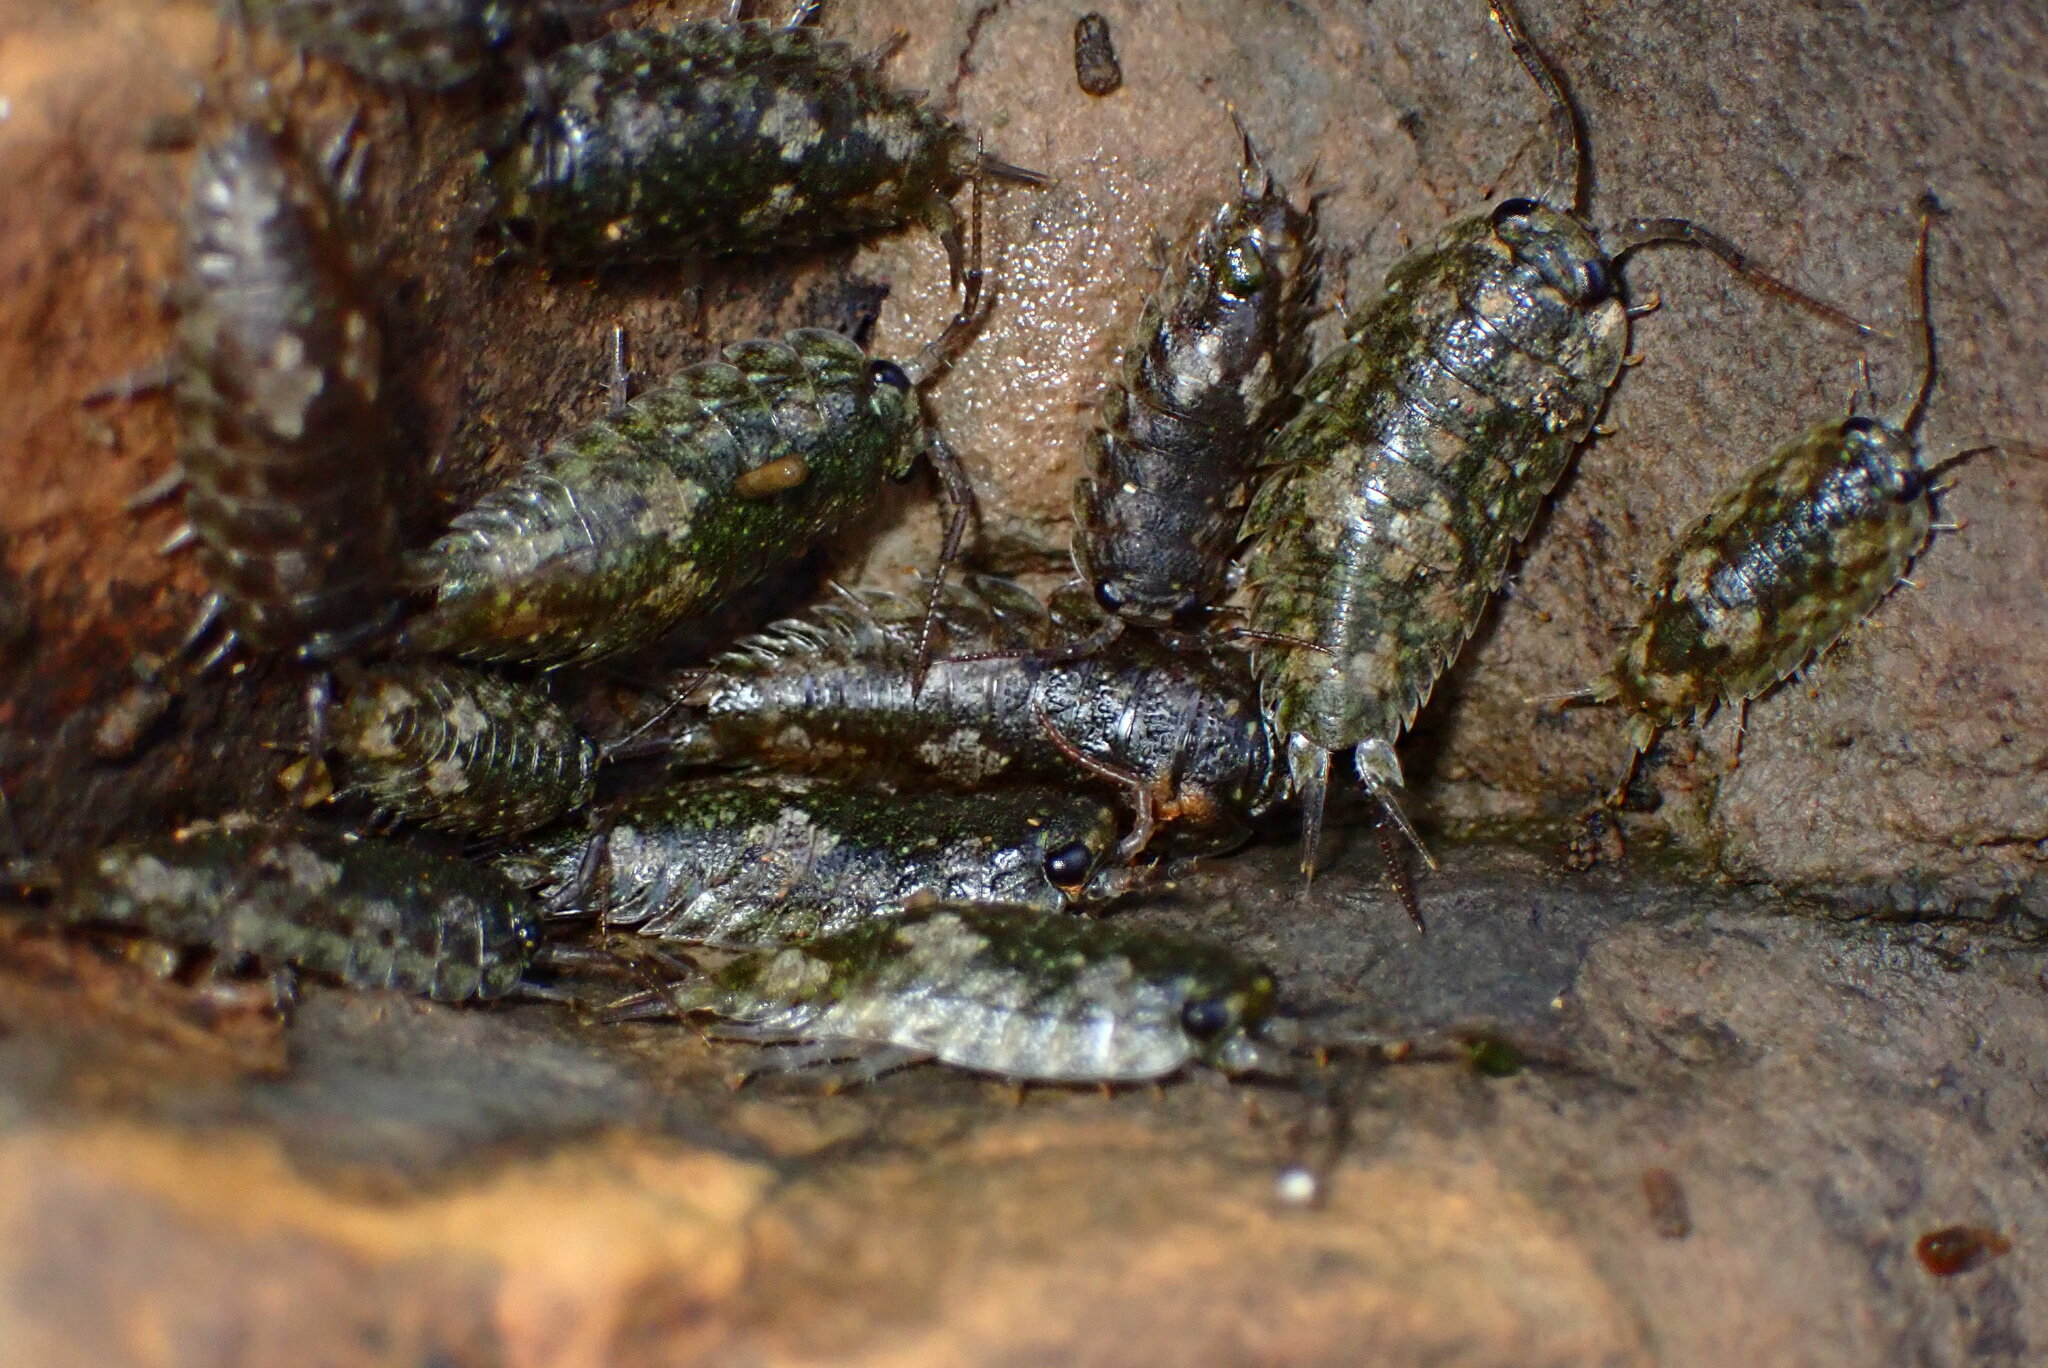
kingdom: Animalia
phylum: Arthropoda
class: Malacostraca
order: Isopoda
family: Ligiidae
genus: Ligia
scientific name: Ligia pallasii
